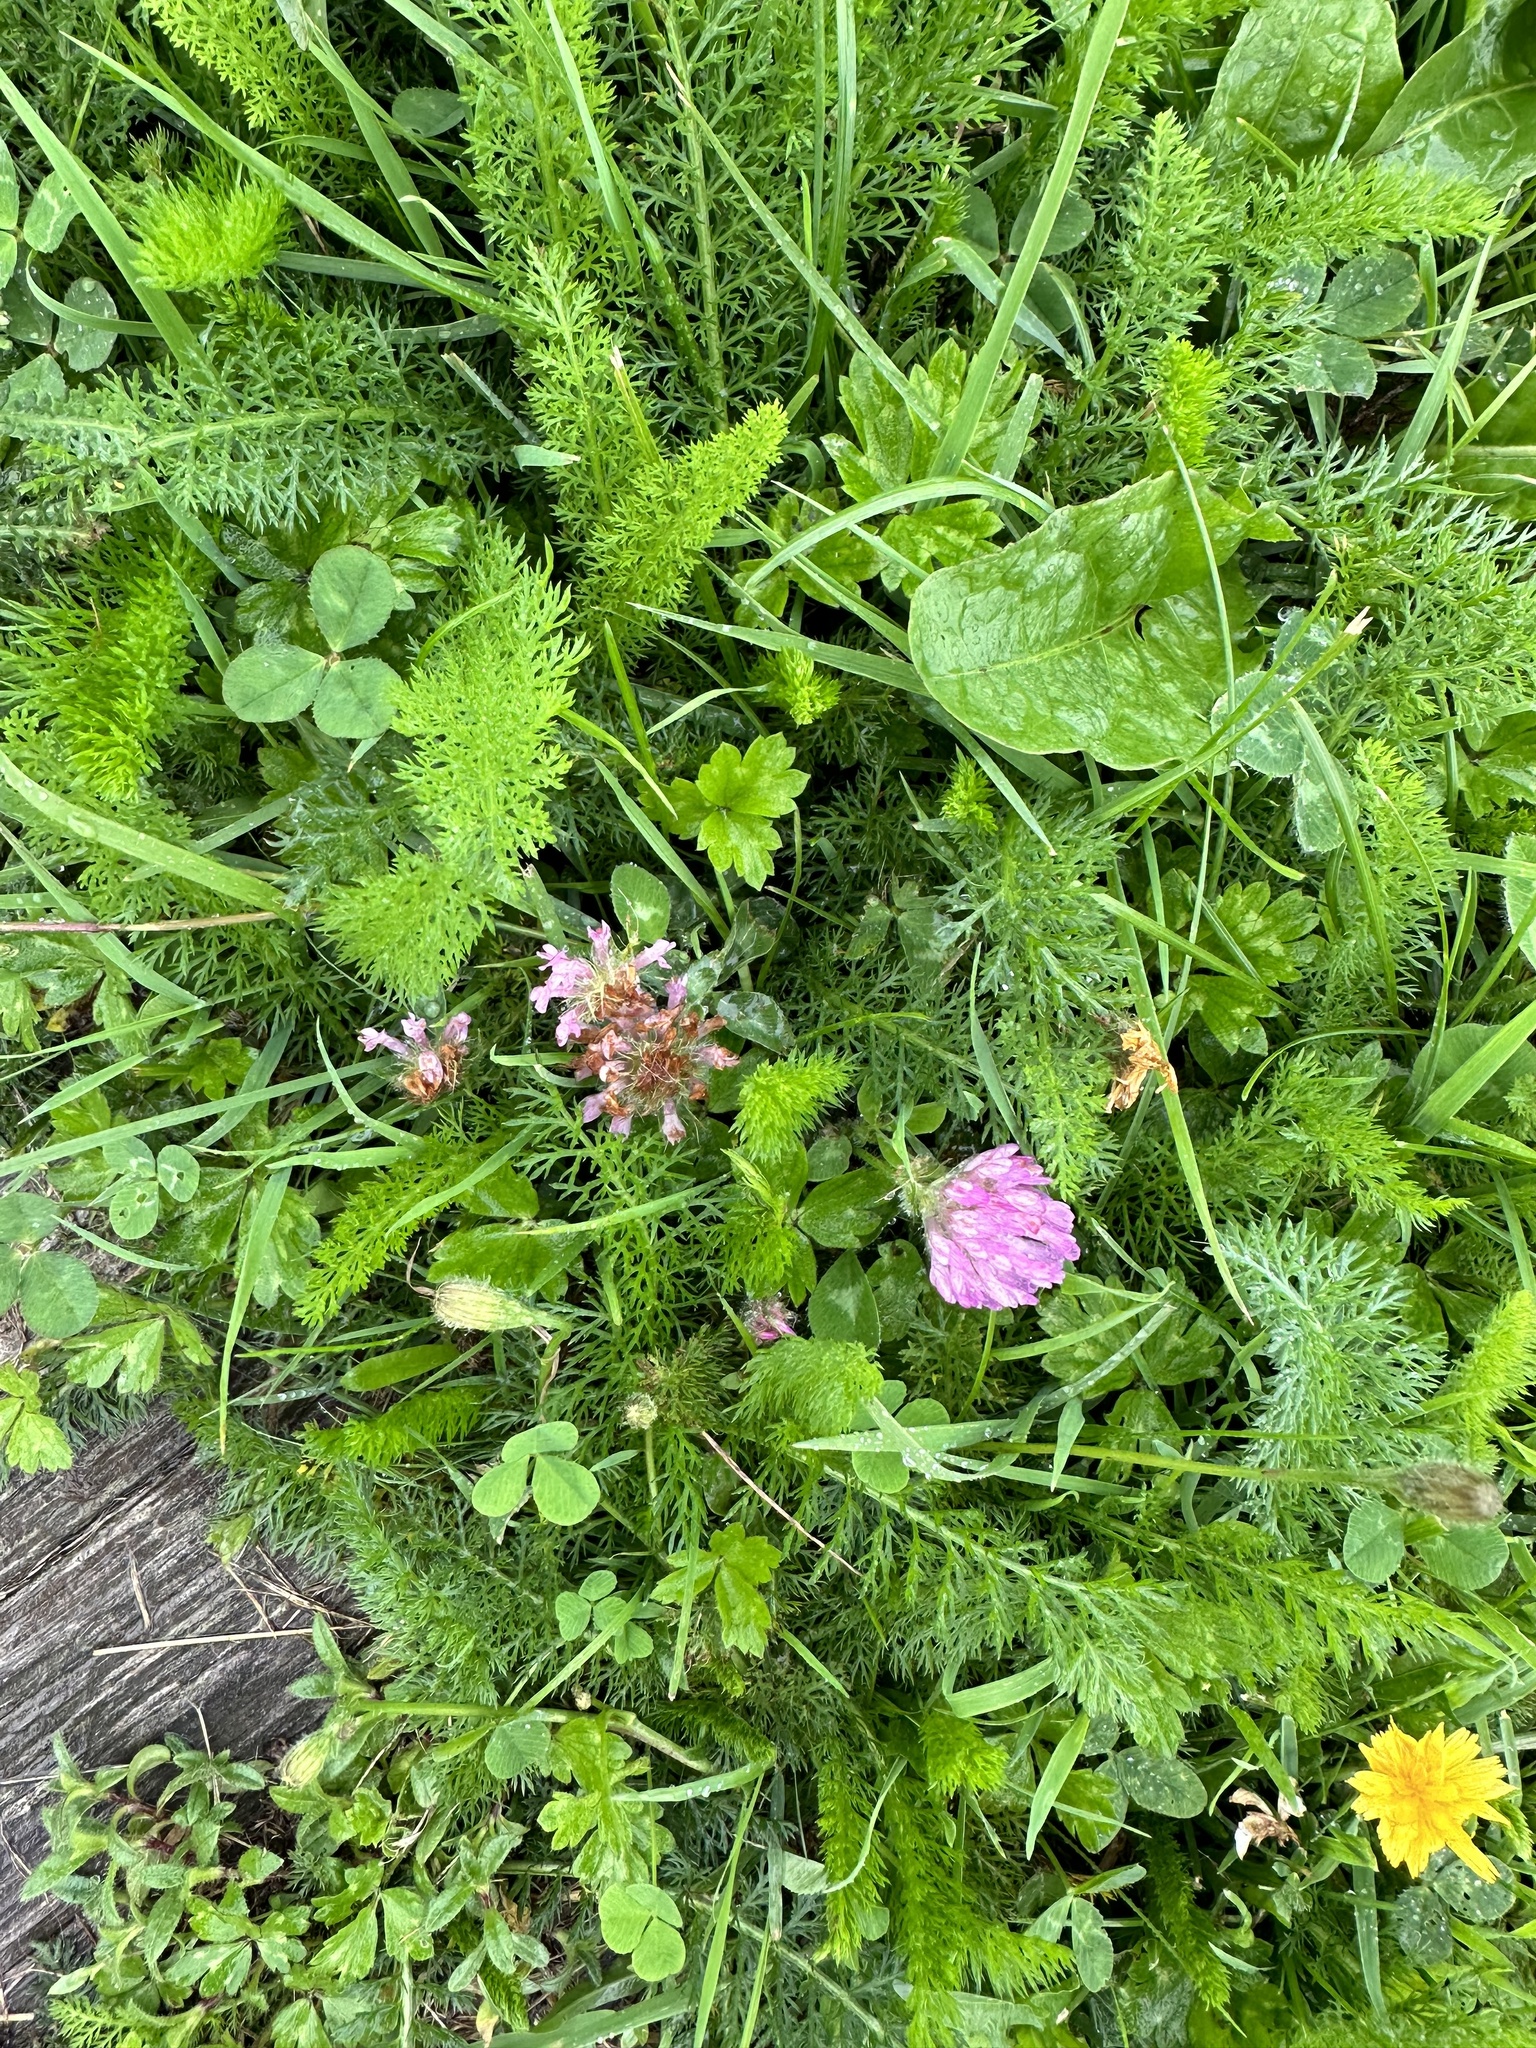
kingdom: Plantae
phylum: Tracheophyta
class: Magnoliopsida
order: Fabales
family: Fabaceae
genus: Trifolium
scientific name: Trifolium pratense
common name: Red clover
